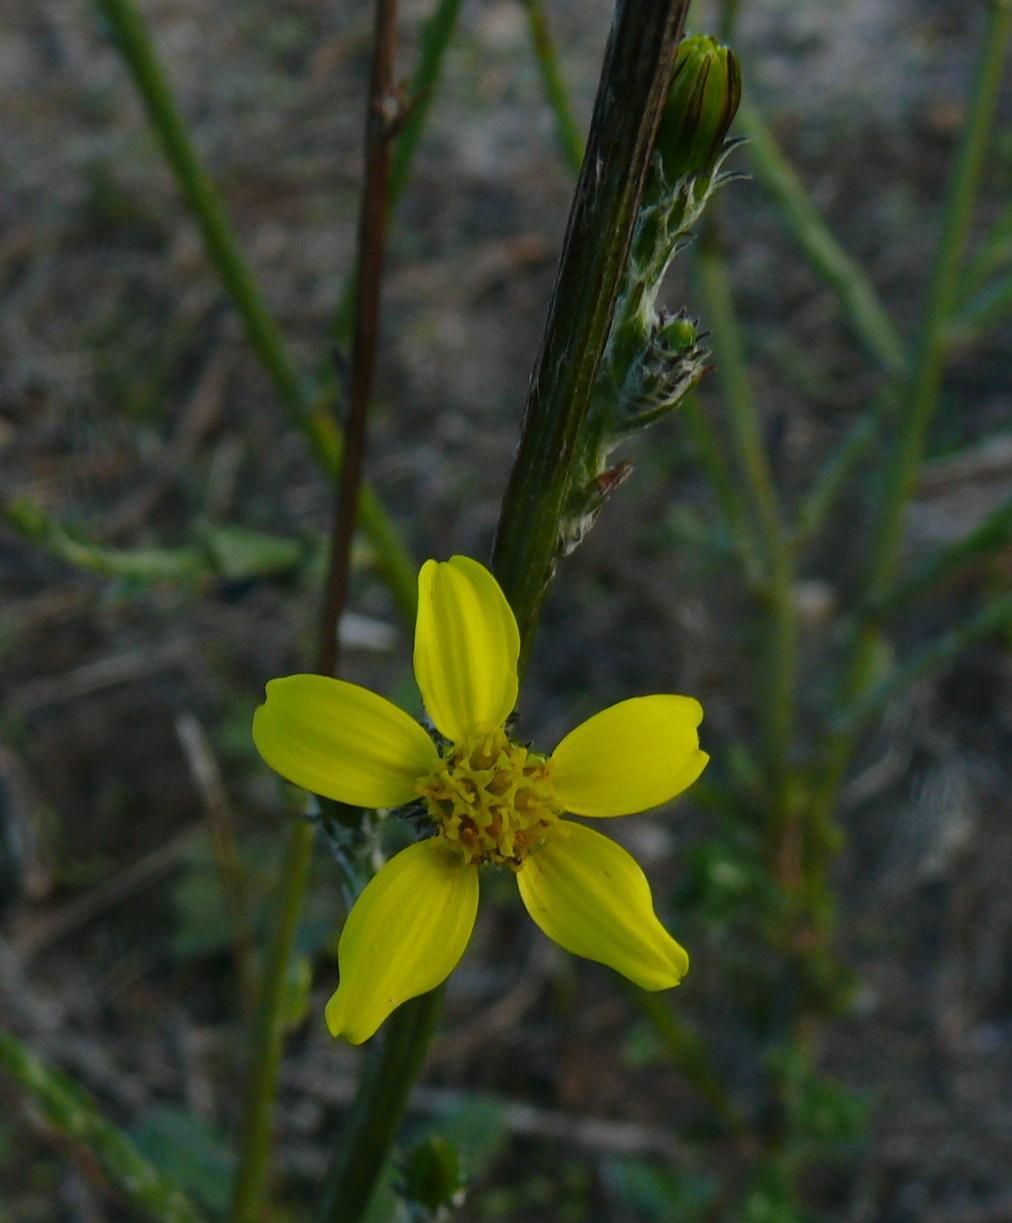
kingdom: Plantae
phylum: Tracheophyta
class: Magnoliopsida
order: Asterales
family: Asteraceae
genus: Senecio
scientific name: Senecio pubigerus
